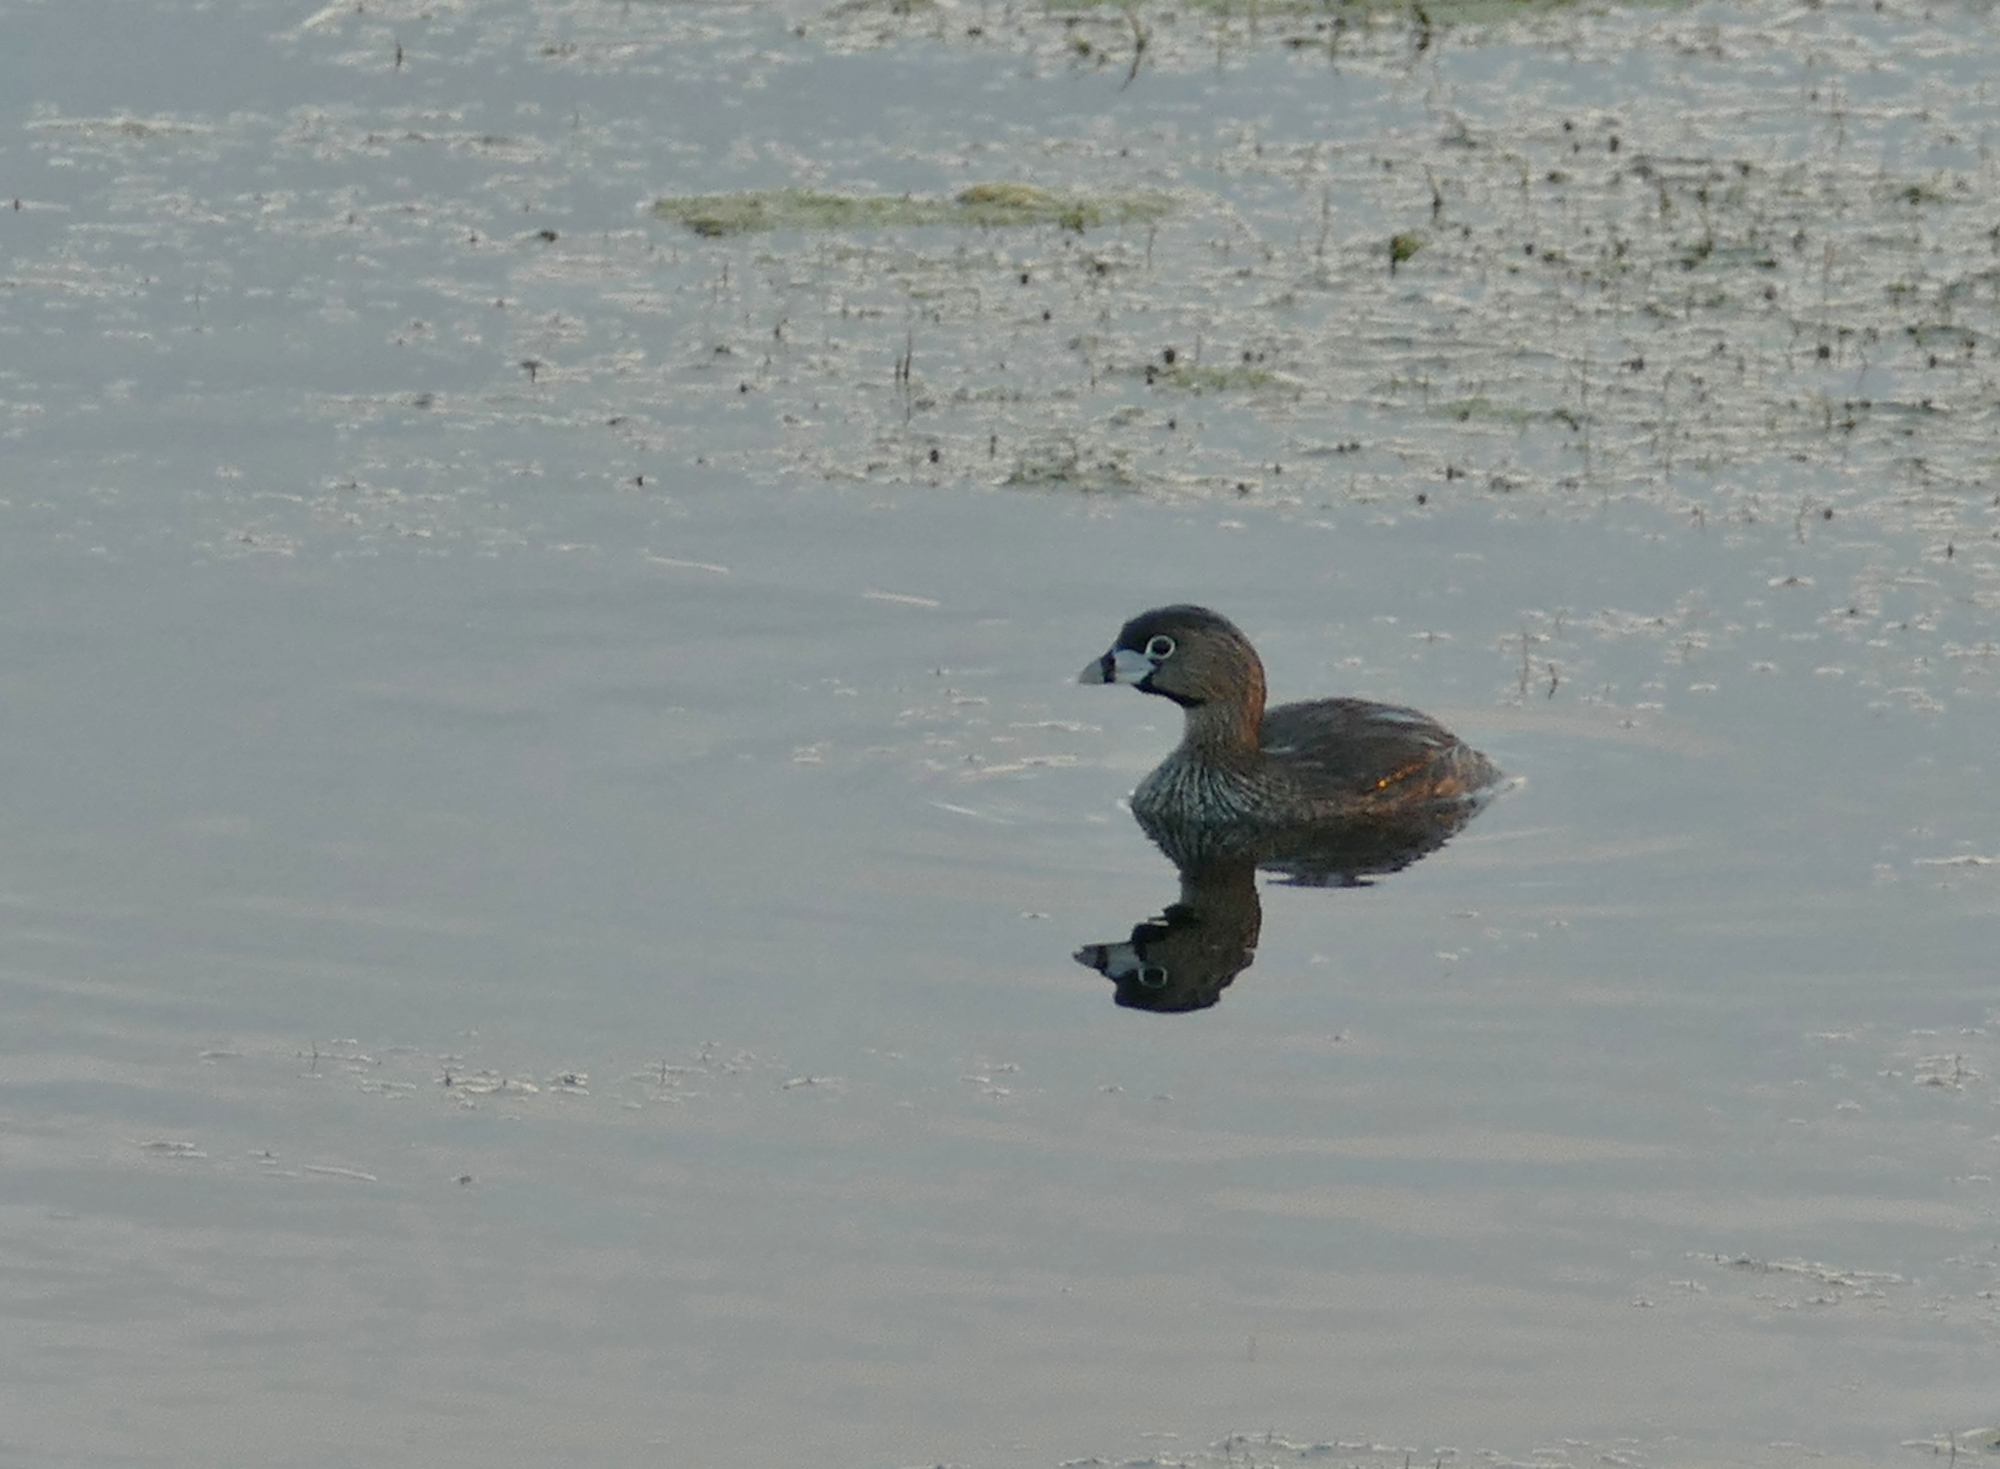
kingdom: Animalia
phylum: Chordata
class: Aves
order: Podicipediformes
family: Podicipedidae
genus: Podilymbus
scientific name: Podilymbus podiceps
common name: Pied-billed grebe
